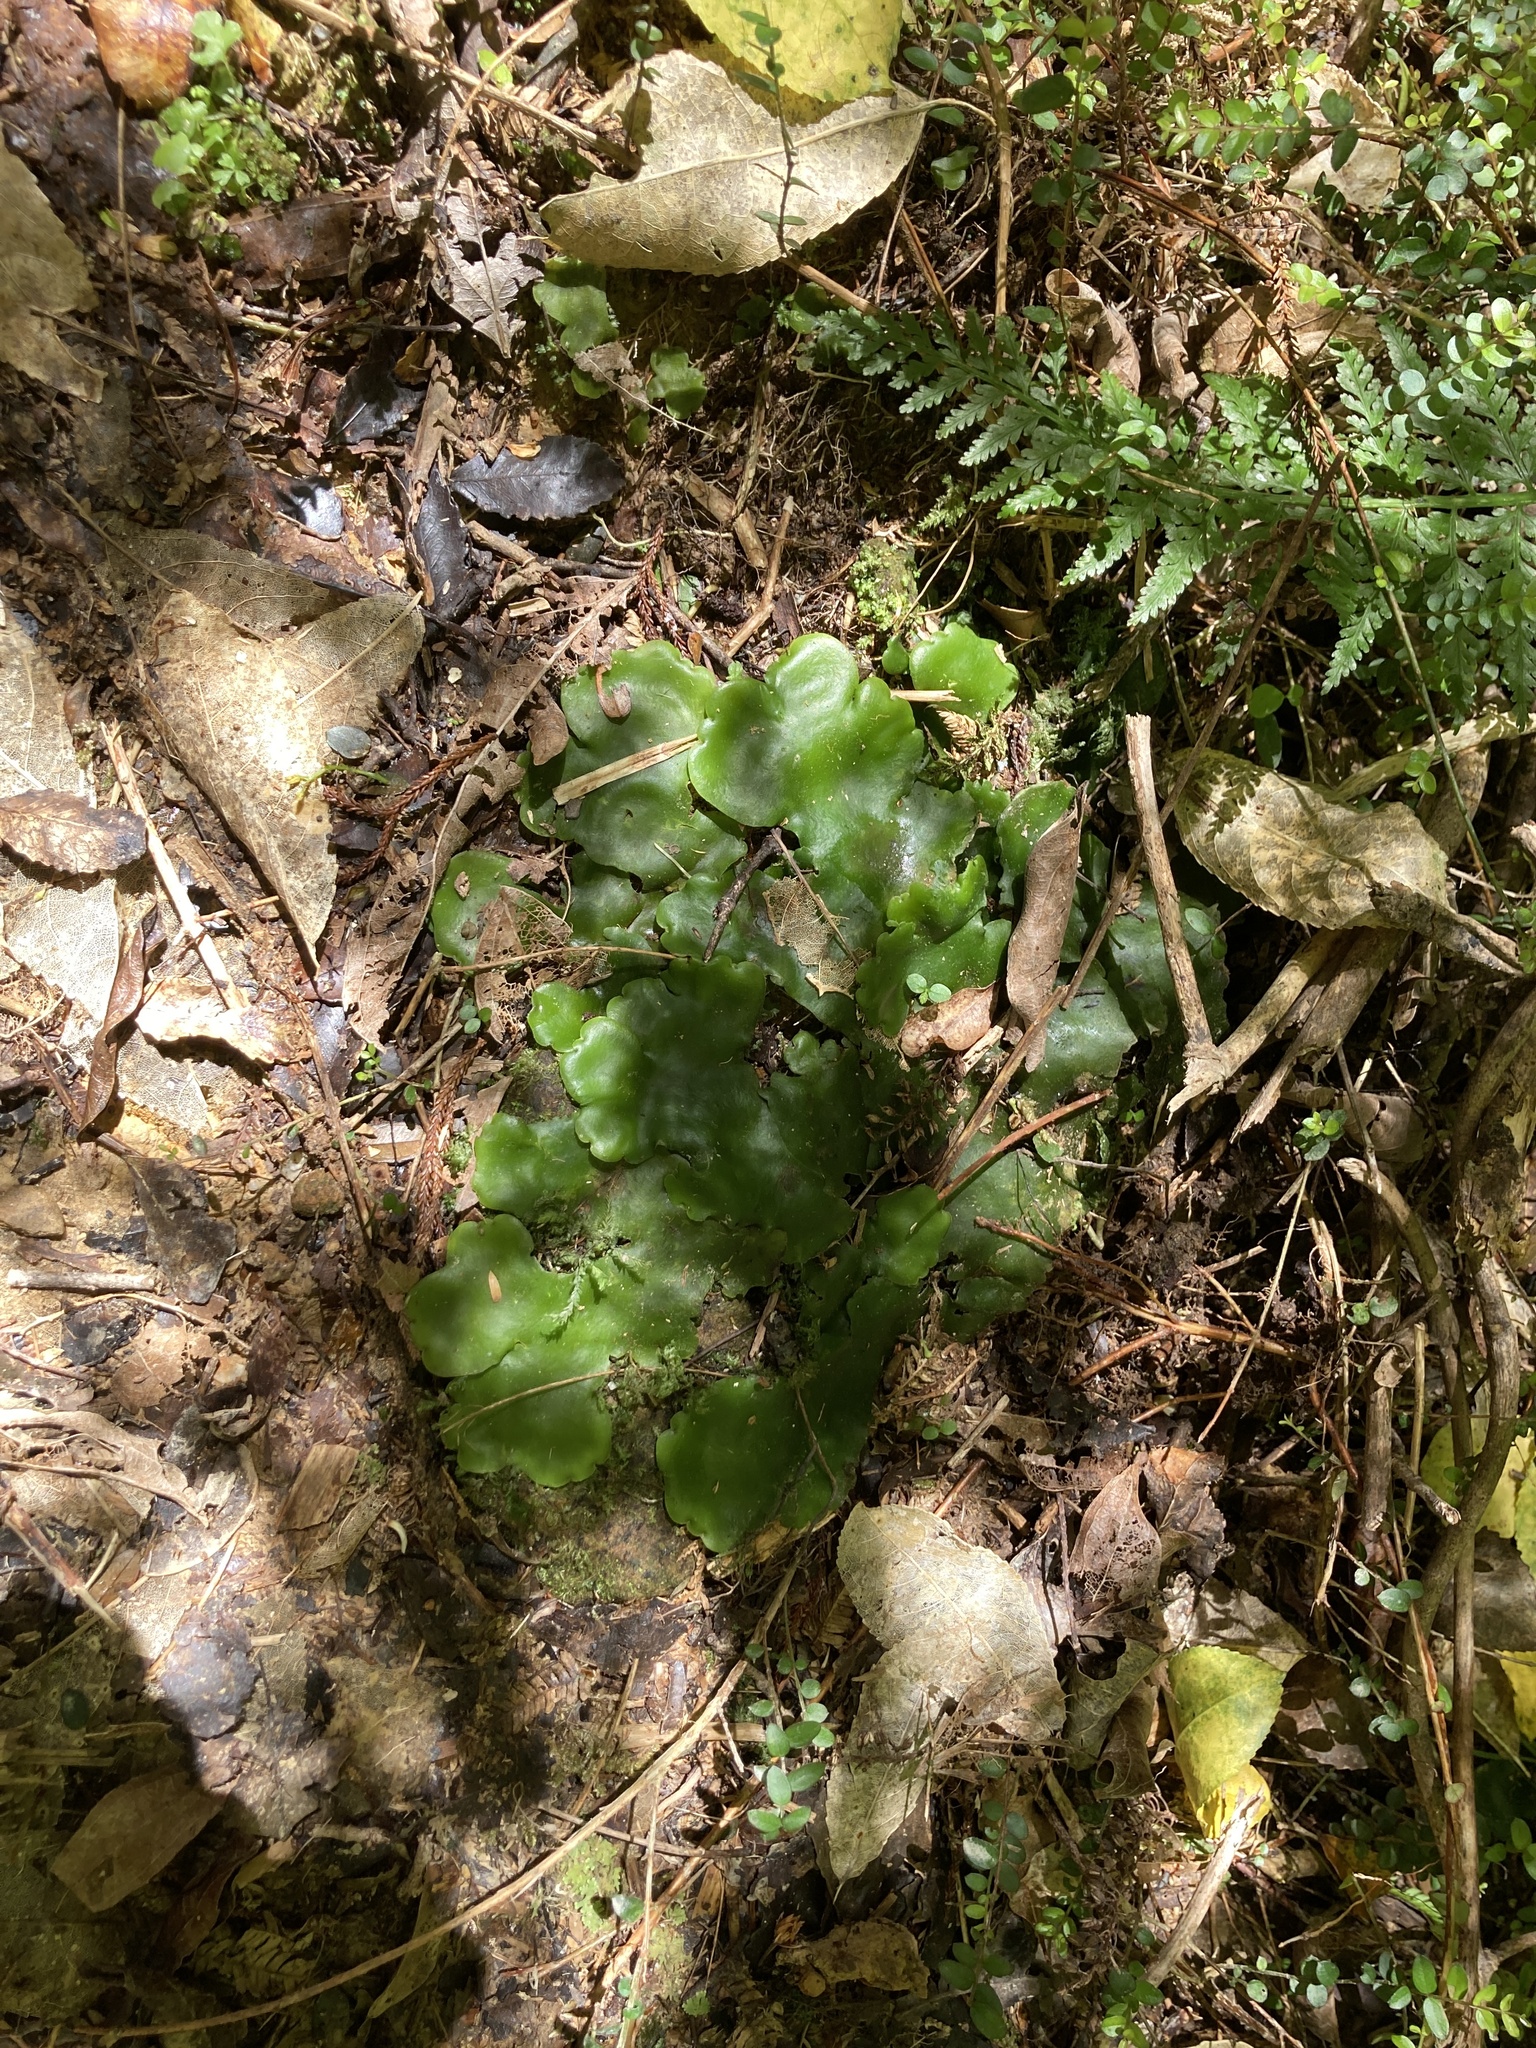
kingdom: Plantae
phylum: Marchantiophyta
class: Marchantiopsida
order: Marchantiales
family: Monocleaceae
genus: Monoclea
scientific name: Monoclea forsteri
